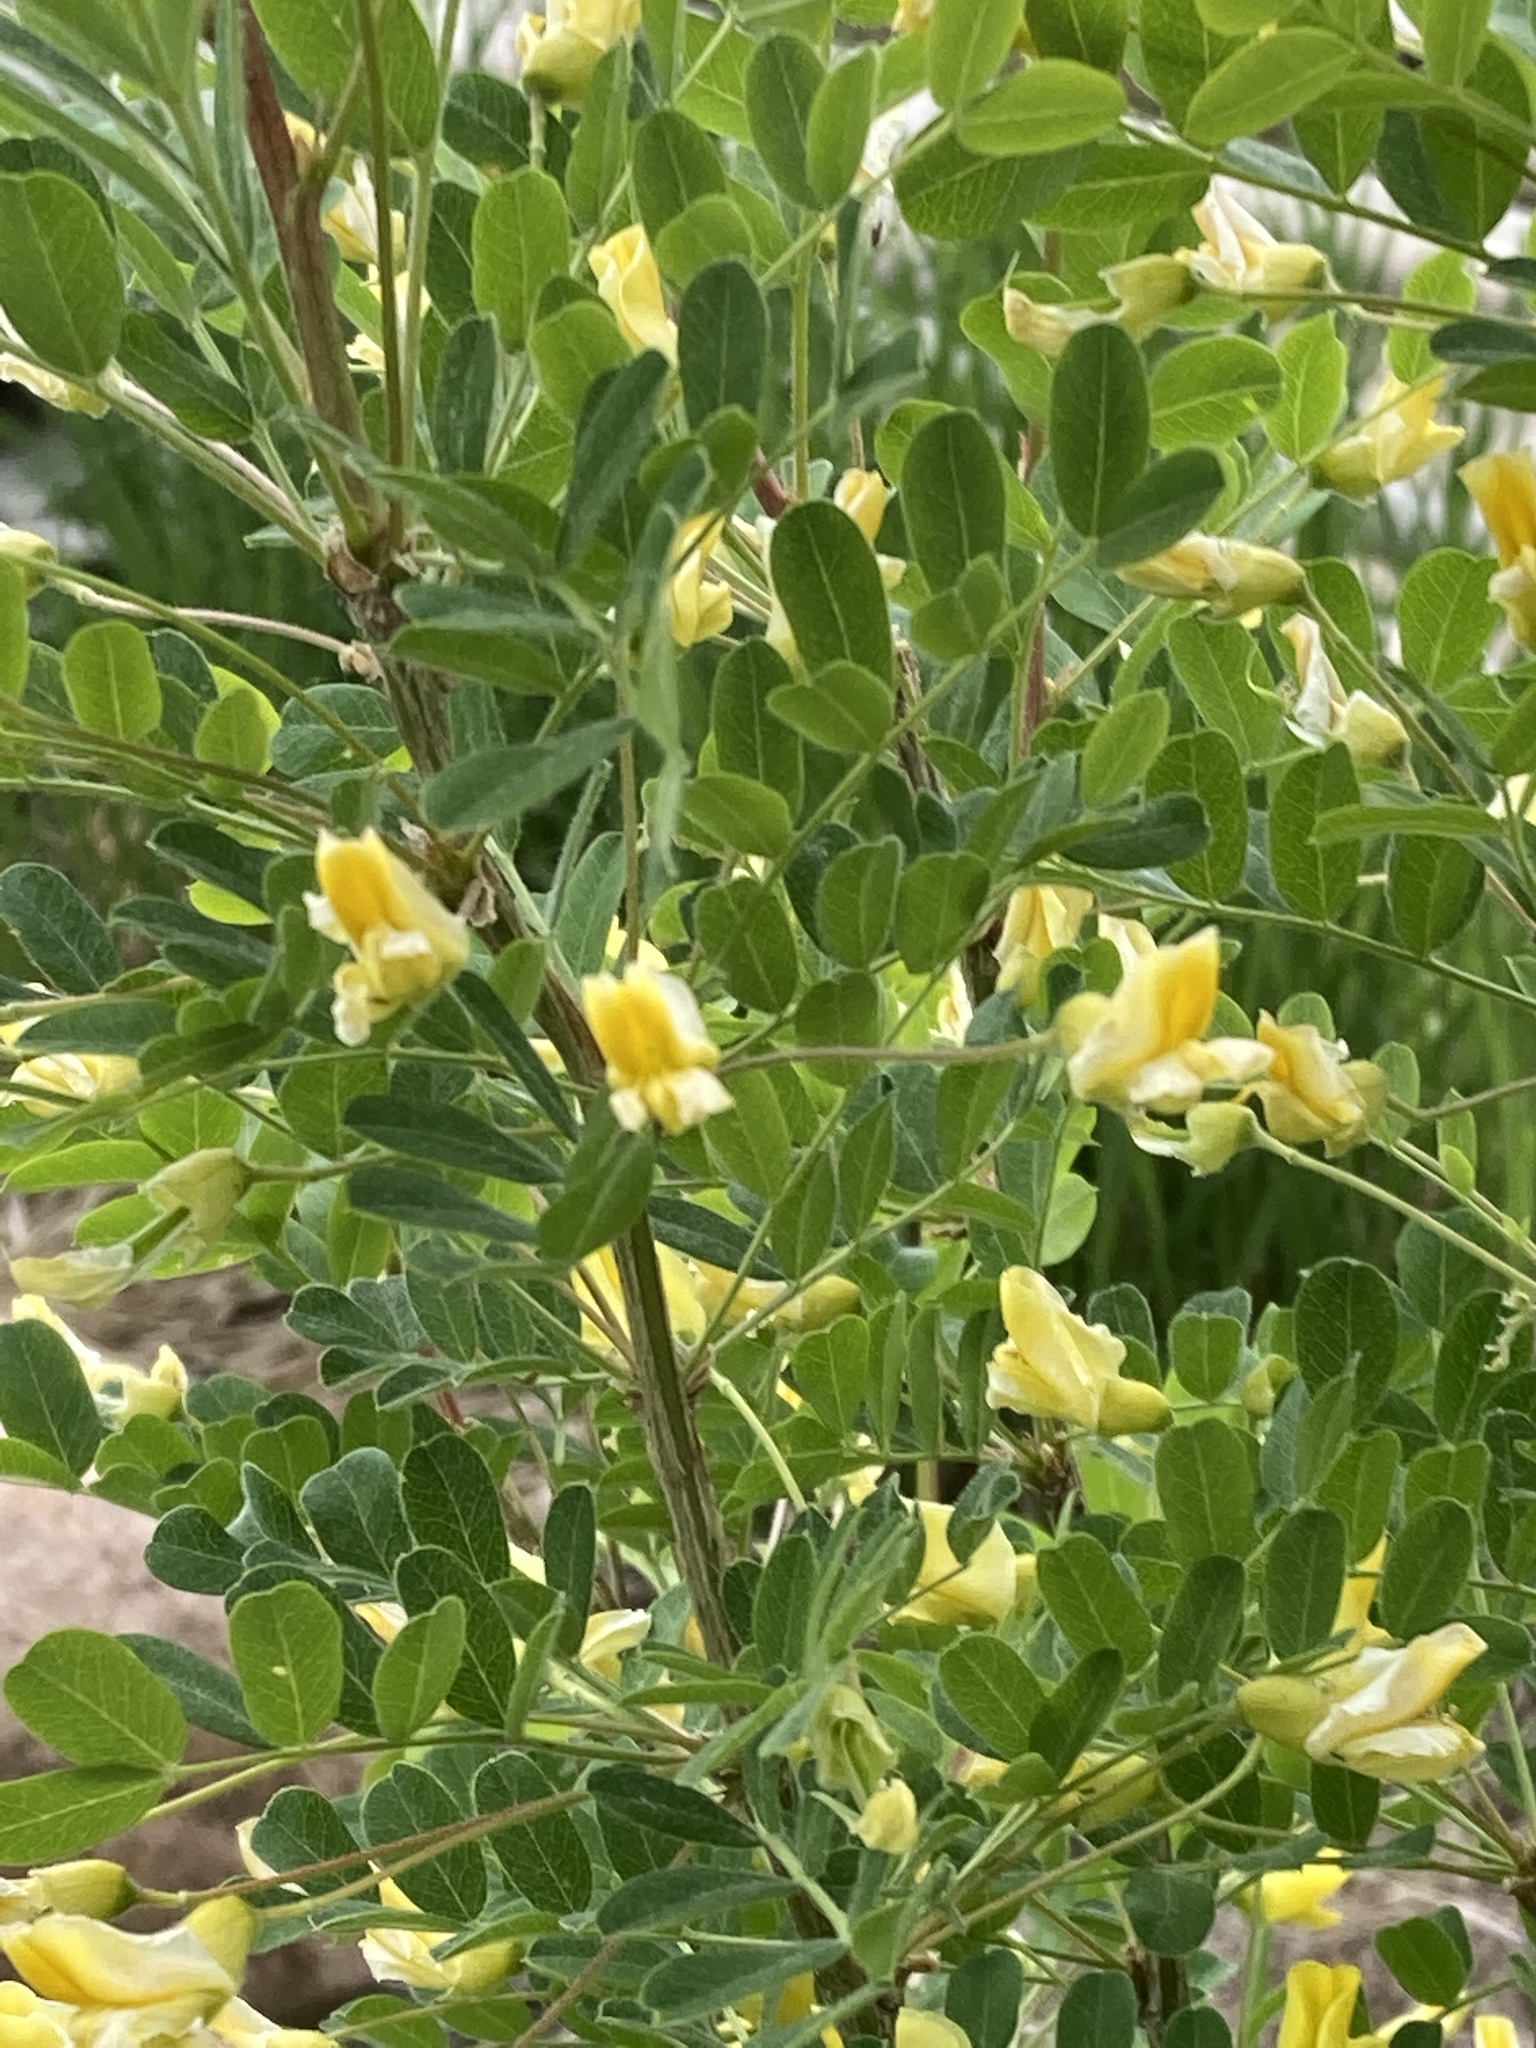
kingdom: Plantae
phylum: Tracheophyta
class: Magnoliopsida
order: Fabales
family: Fabaceae
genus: Caragana
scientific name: Caragana arborescens
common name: Siberian peashrub
